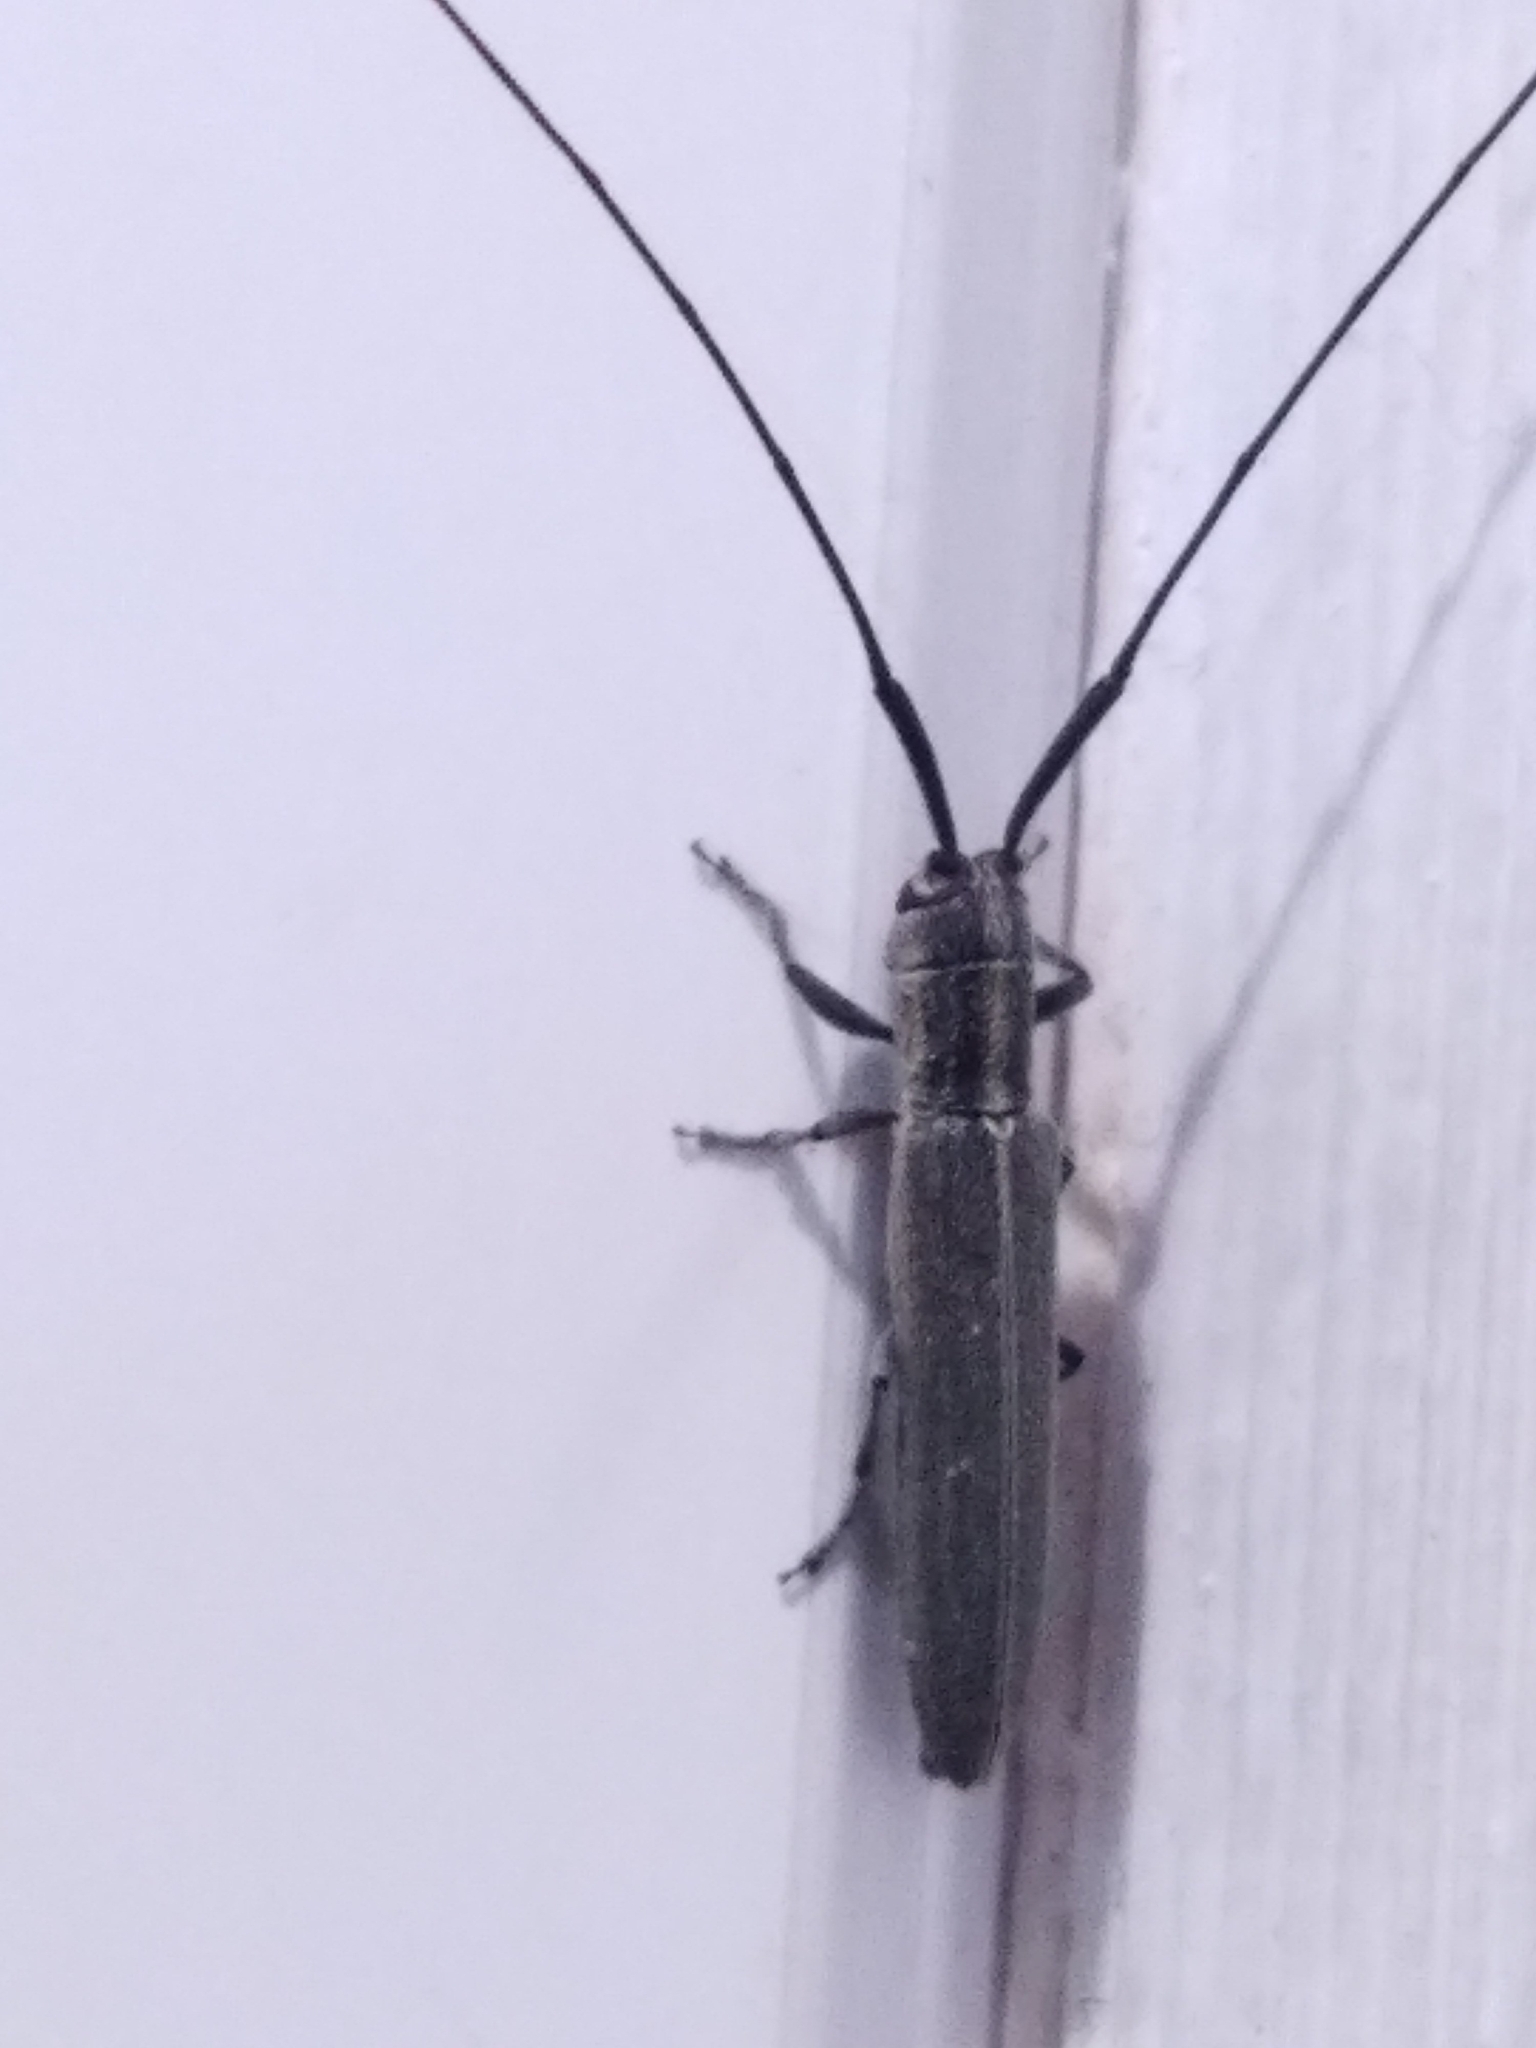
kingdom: Animalia
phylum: Arthropoda
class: Insecta
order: Coleoptera
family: Cerambycidae
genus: Calamobius
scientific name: Calamobius filum
